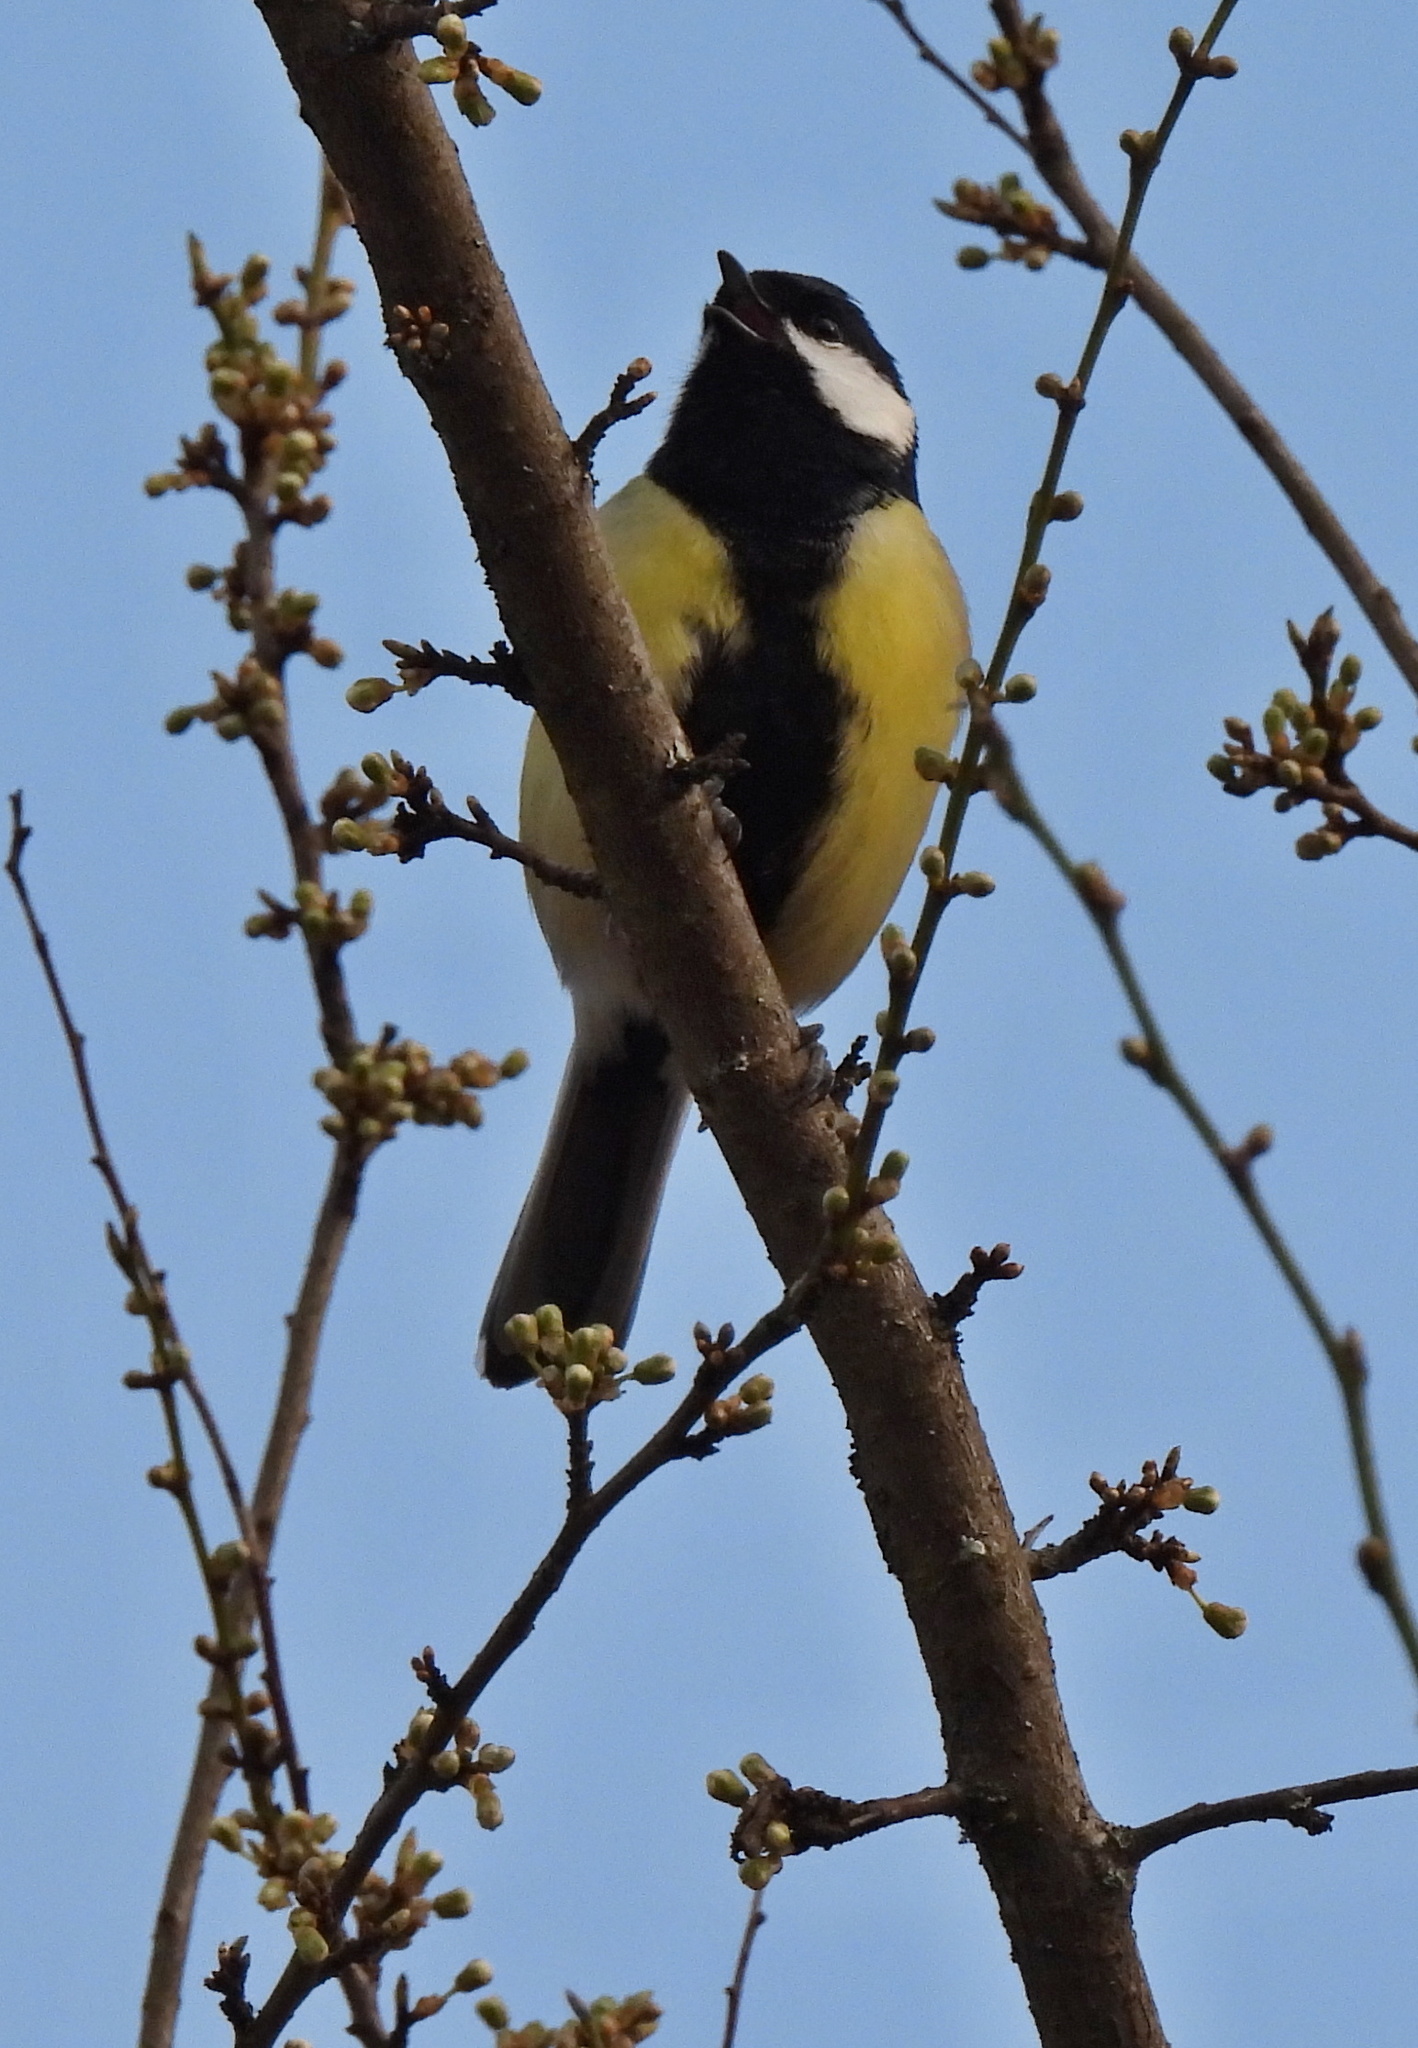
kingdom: Animalia
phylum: Chordata
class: Aves
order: Passeriformes
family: Paridae
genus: Parus
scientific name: Parus major
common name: Great tit
